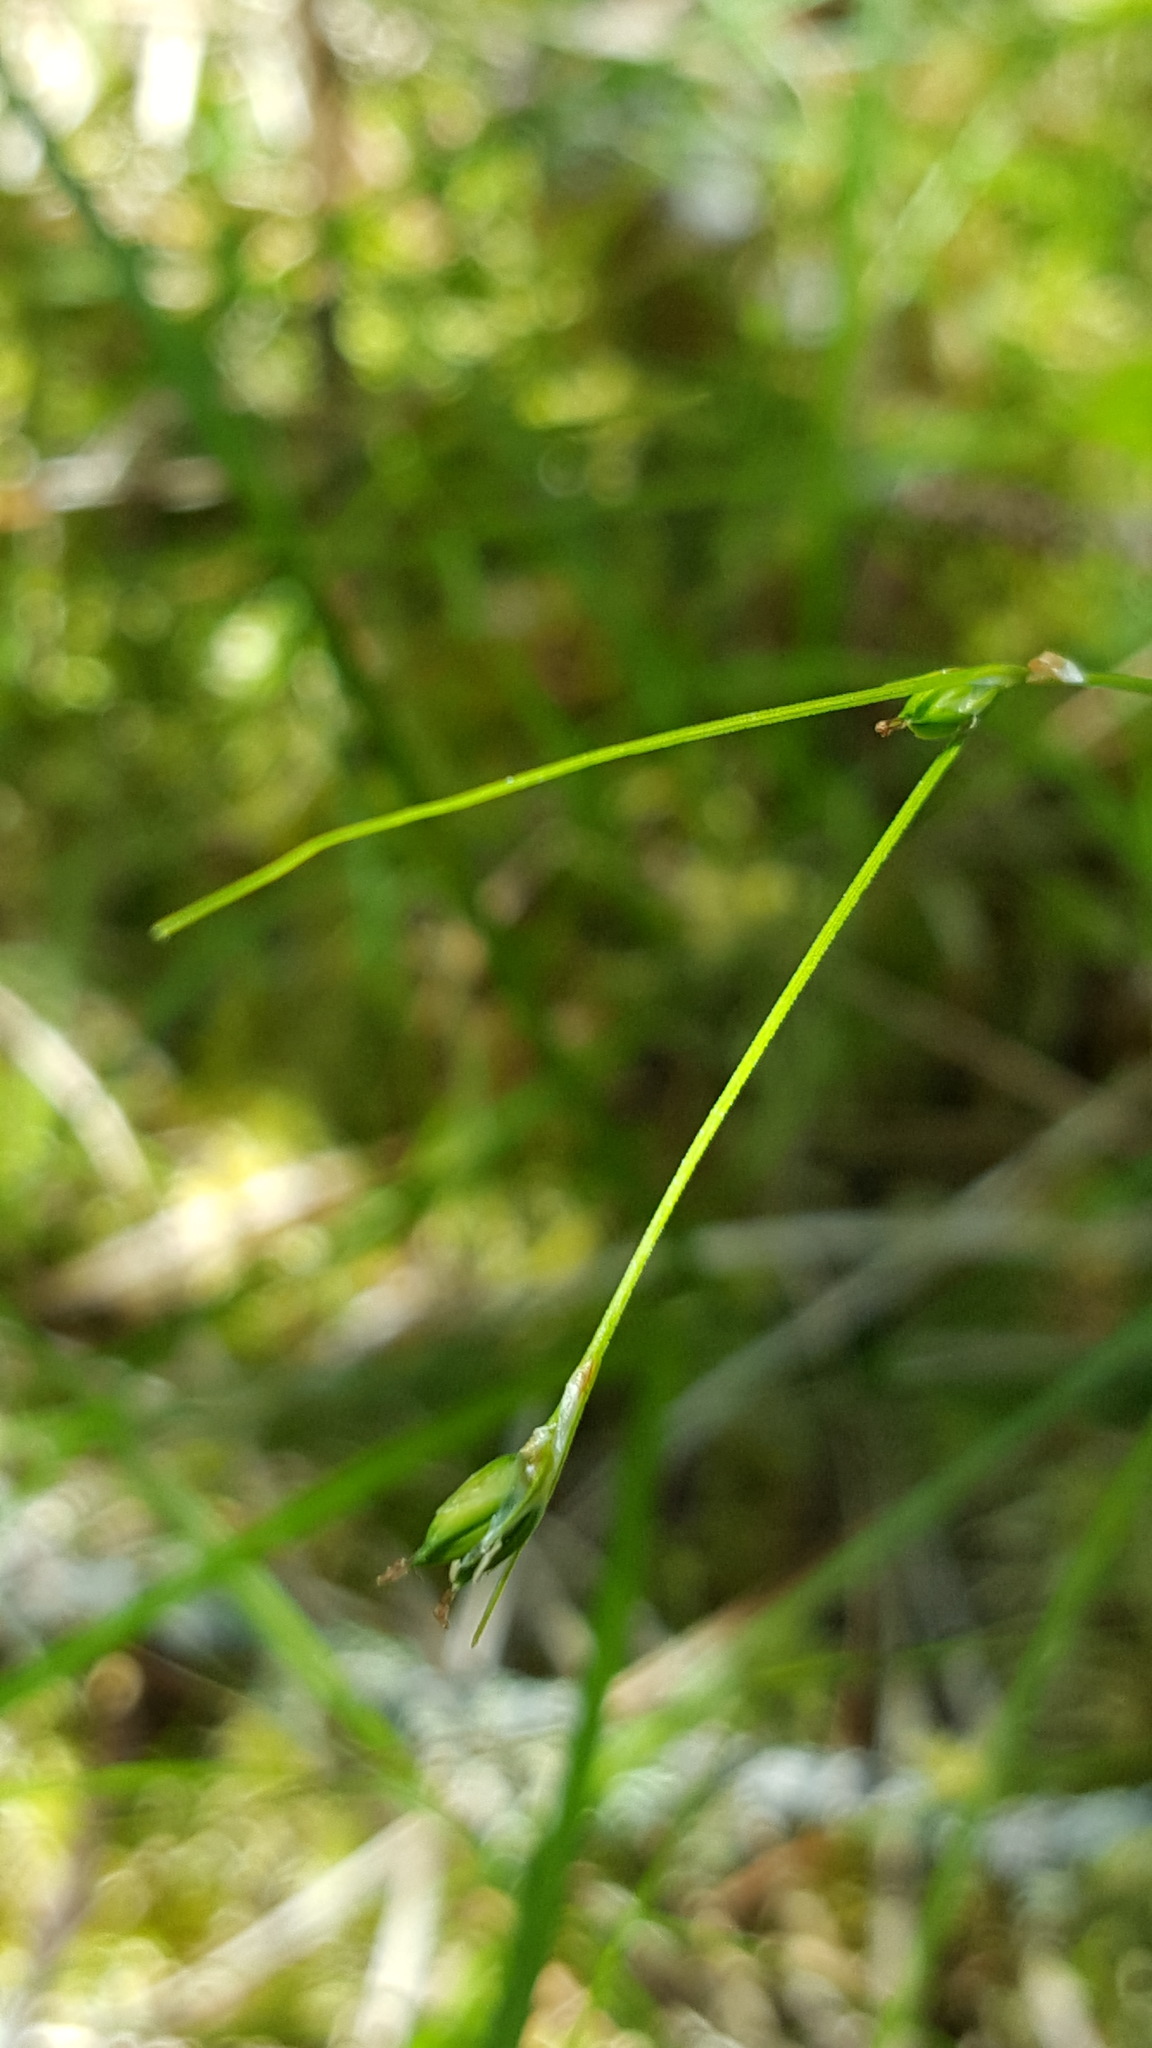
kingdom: Plantae
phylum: Tracheophyta
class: Liliopsida
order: Poales
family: Cyperaceae
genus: Carex
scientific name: Carex trisperma
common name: Three-seeded sedge
